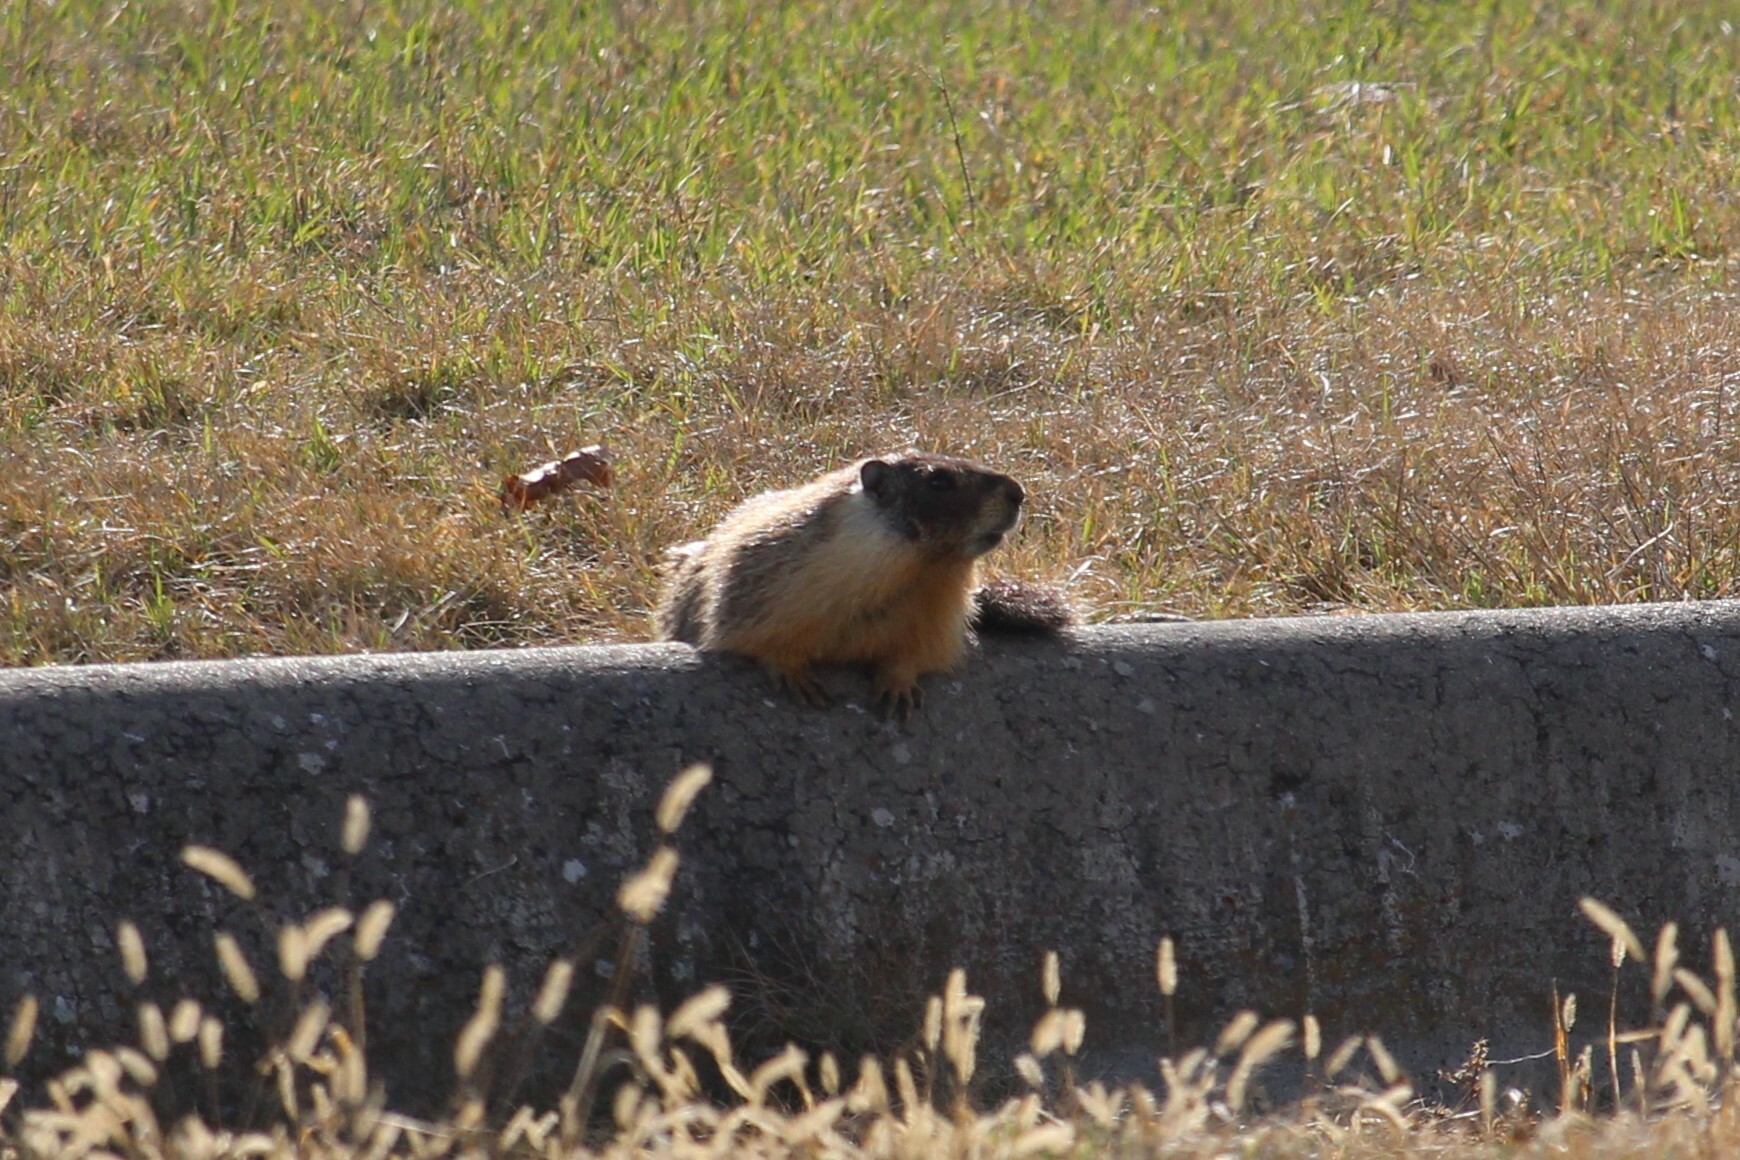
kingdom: Animalia
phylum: Chordata
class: Mammalia
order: Rodentia
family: Sciuridae
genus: Marmota
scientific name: Marmota flaviventris
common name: Yellow-bellied marmot
